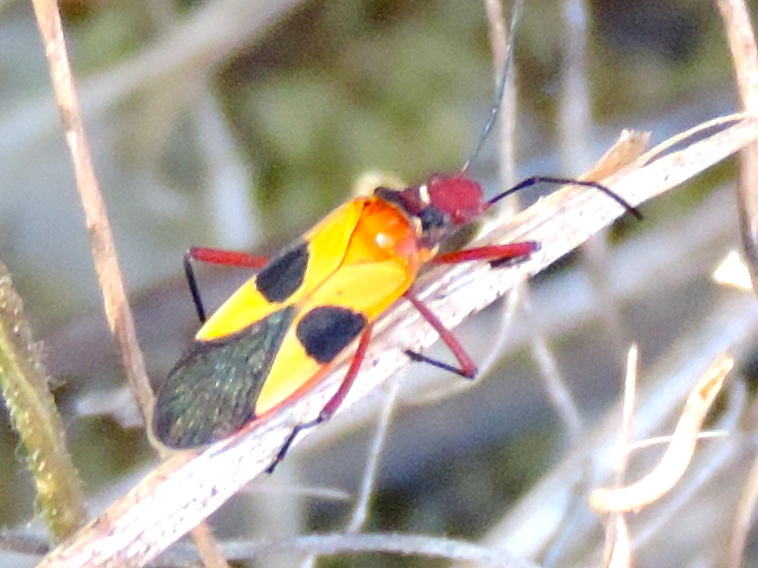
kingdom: Animalia
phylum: Arthropoda
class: Insecta
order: Hemiptera
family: Pyrrhocoridae
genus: Dysdercus
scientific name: Dysdercus concinnus
